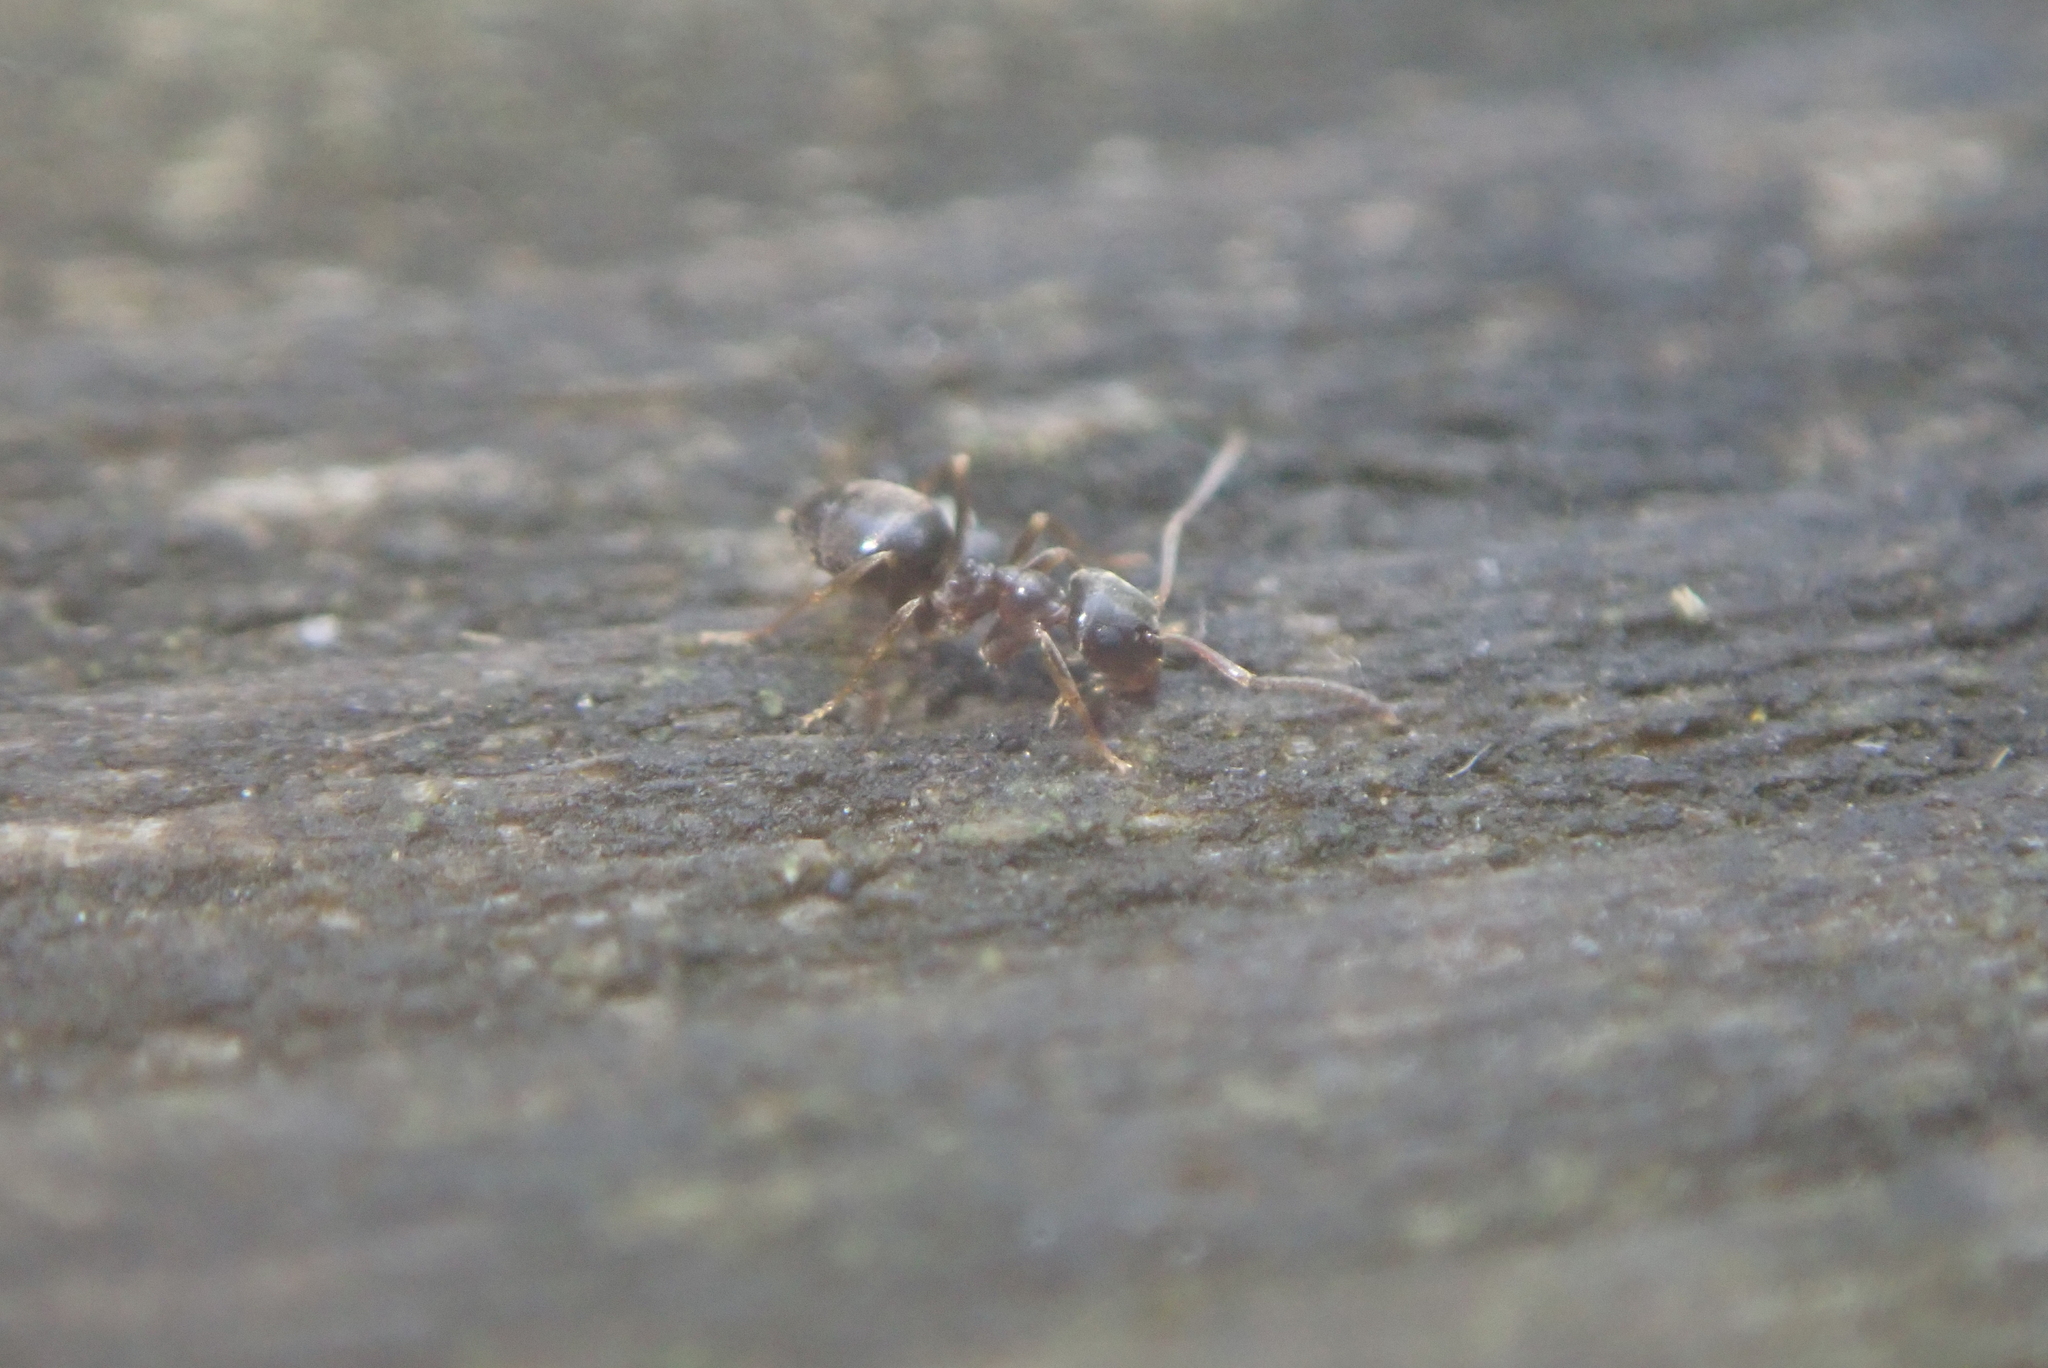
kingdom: Animalia
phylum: Arthropoda
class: Insecta
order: Hymenoptera
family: Formicidae
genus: Lasius
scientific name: Lasius americanus
